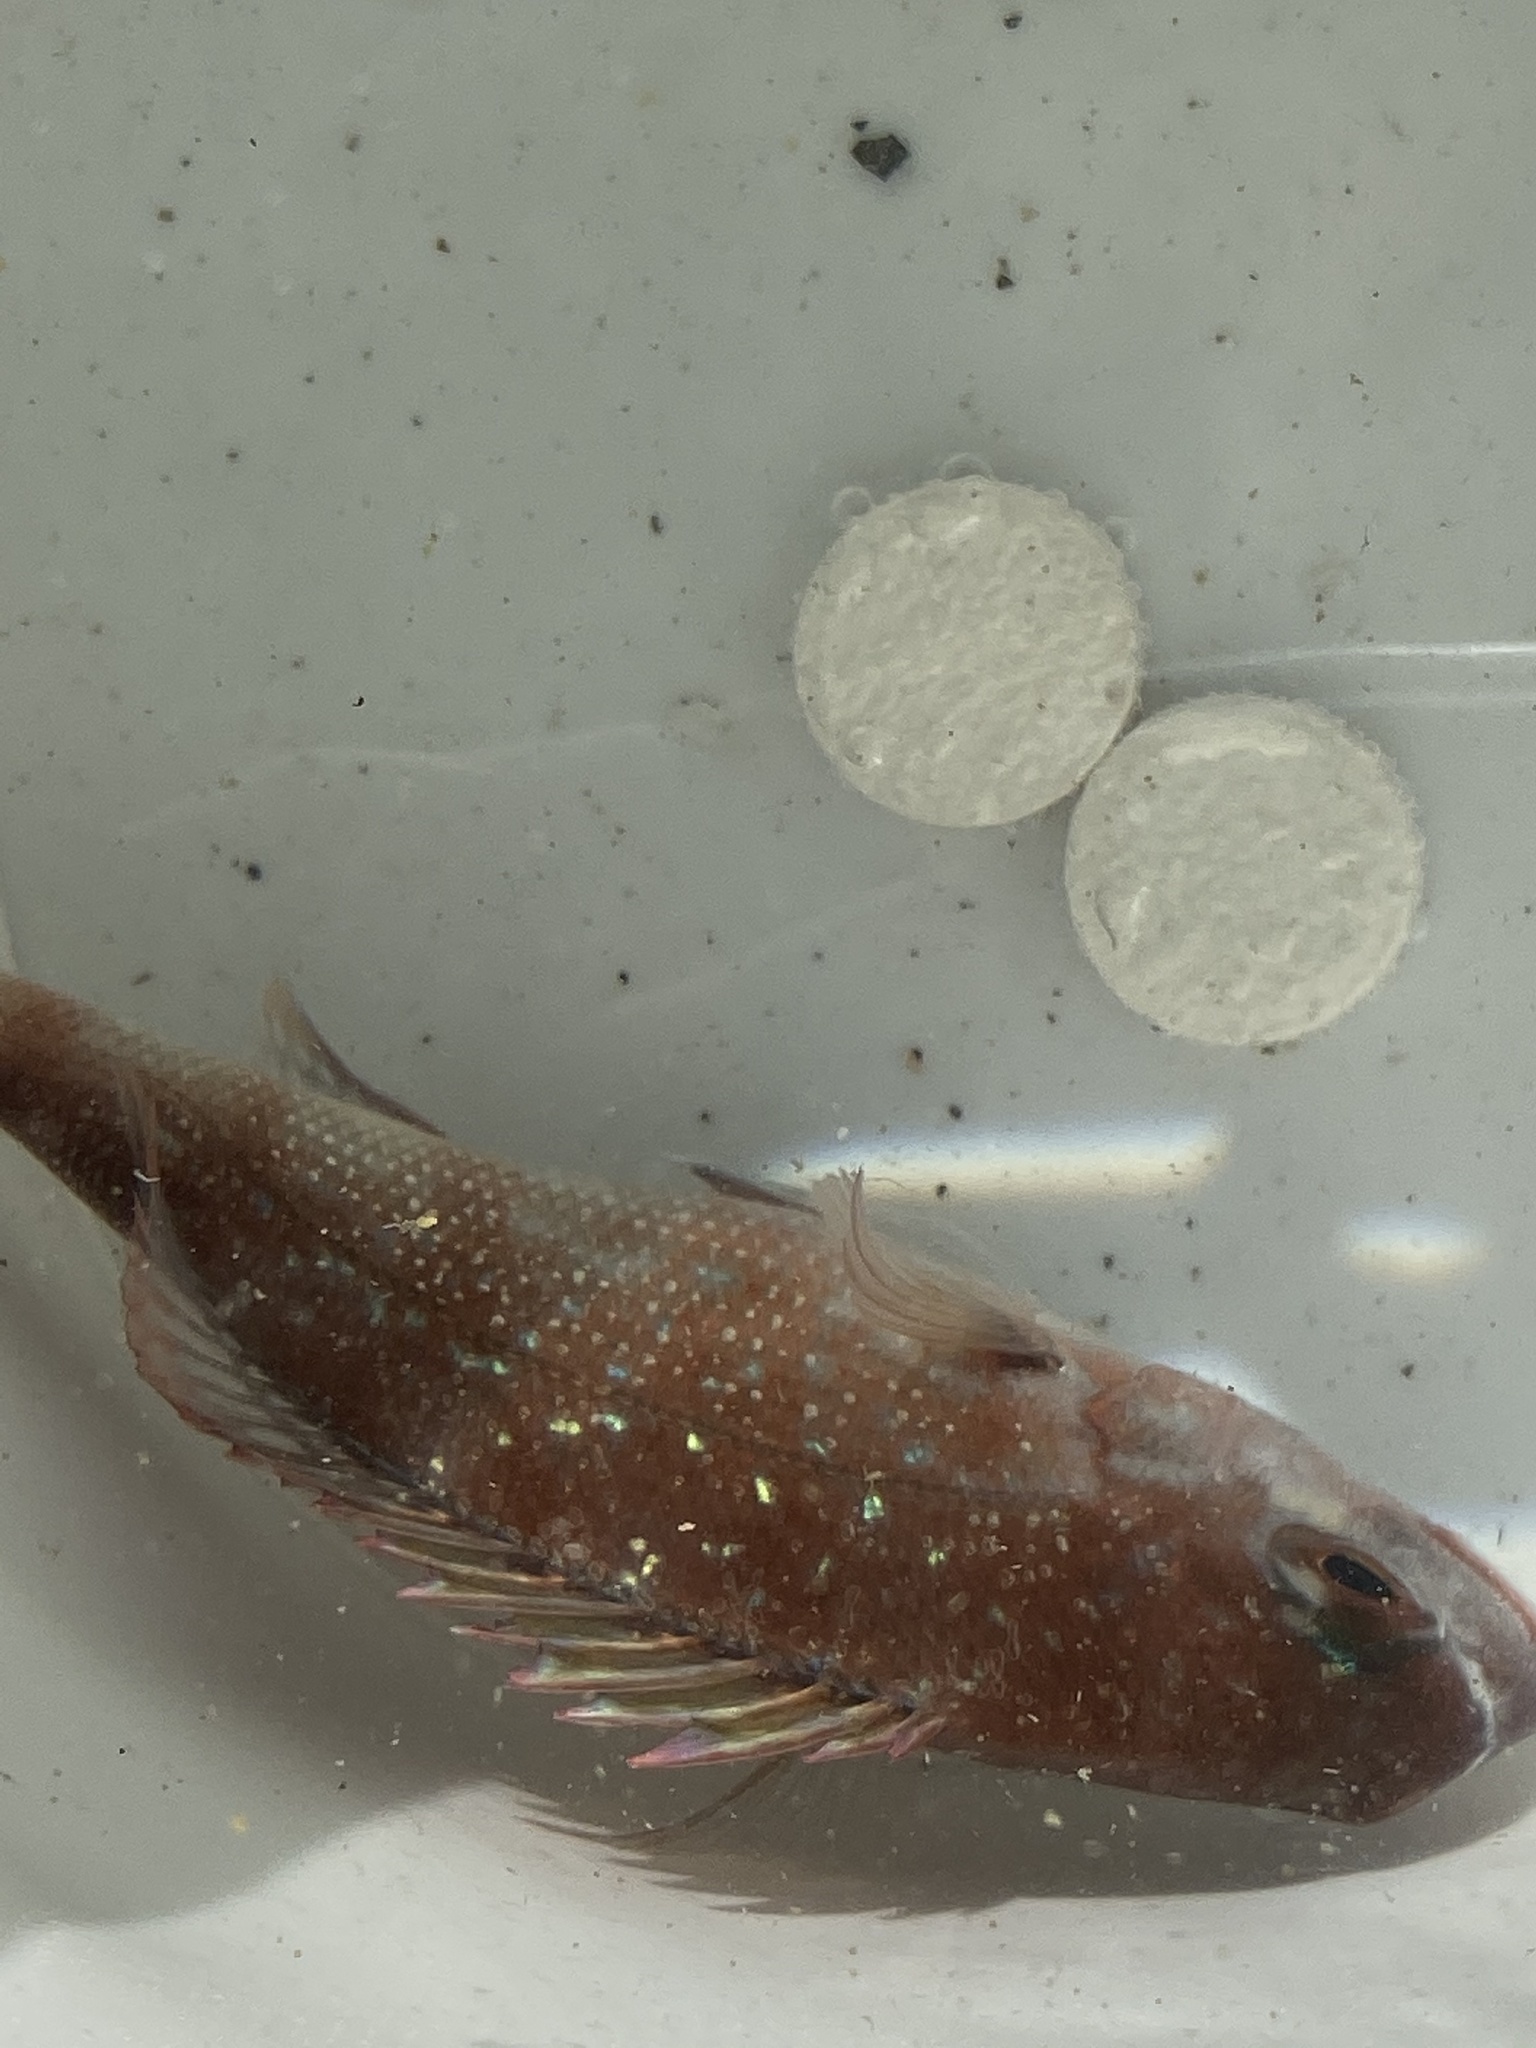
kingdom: Animalia
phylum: Chordata
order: Perciformes
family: Sparidae
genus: Pagrus
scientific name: Pagrus major
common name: Red sea bream
